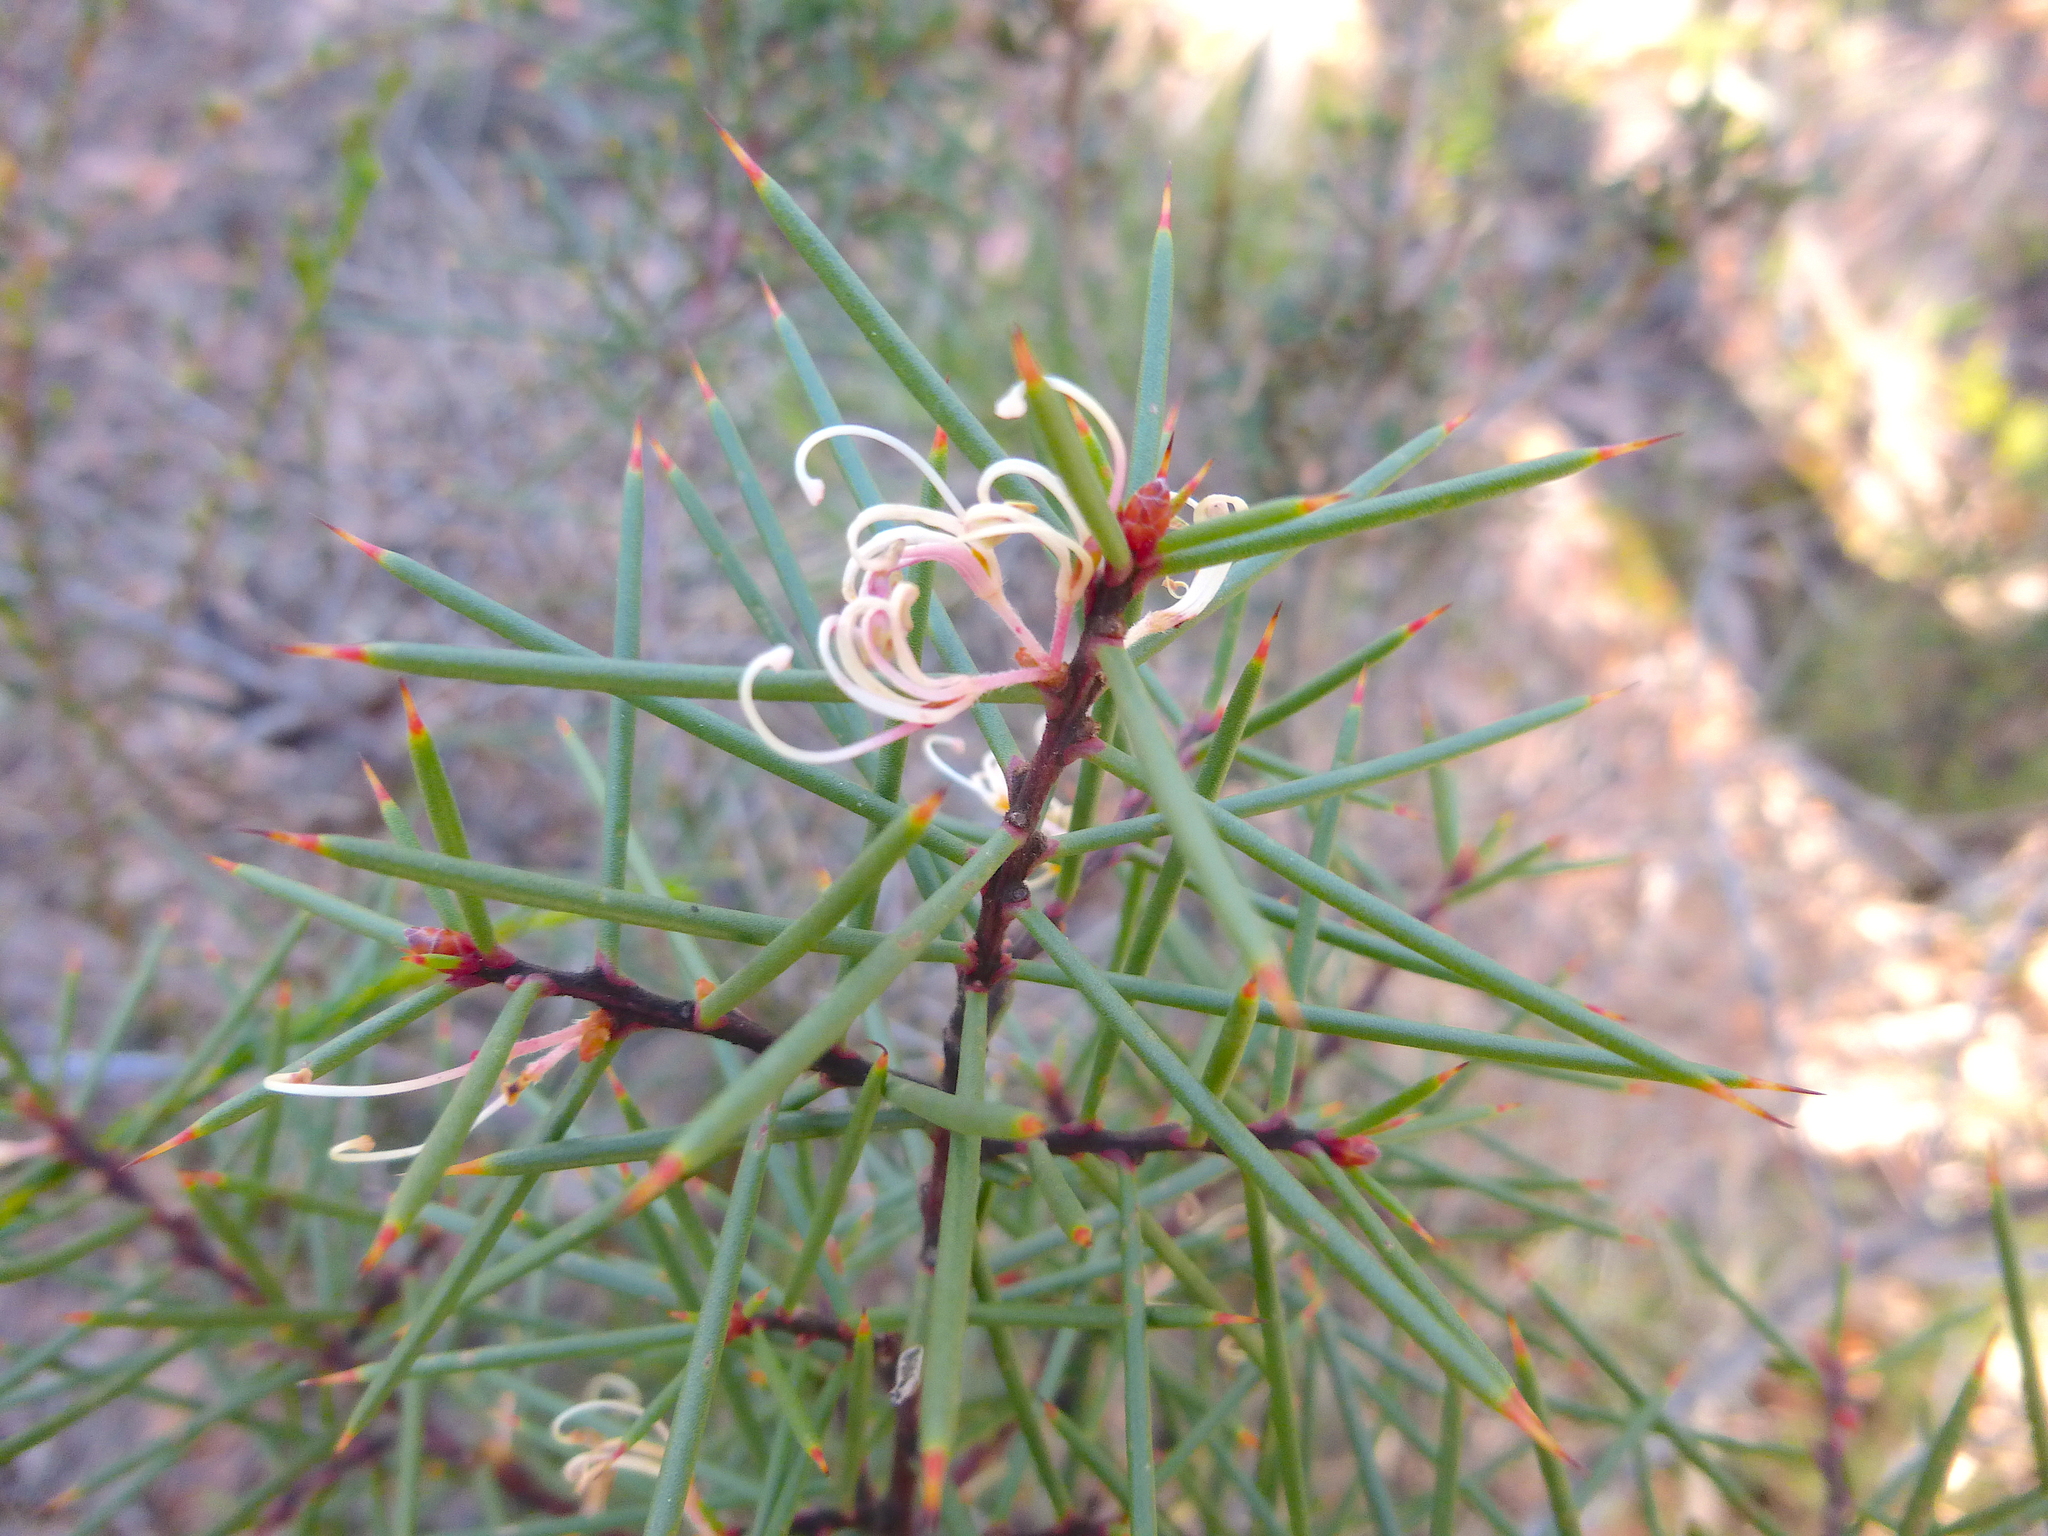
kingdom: Plantae
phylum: Tracheophyta
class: Magnoliopsida
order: Proteales
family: Proteaceae
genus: Hakea
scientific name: Hakea decurrens
